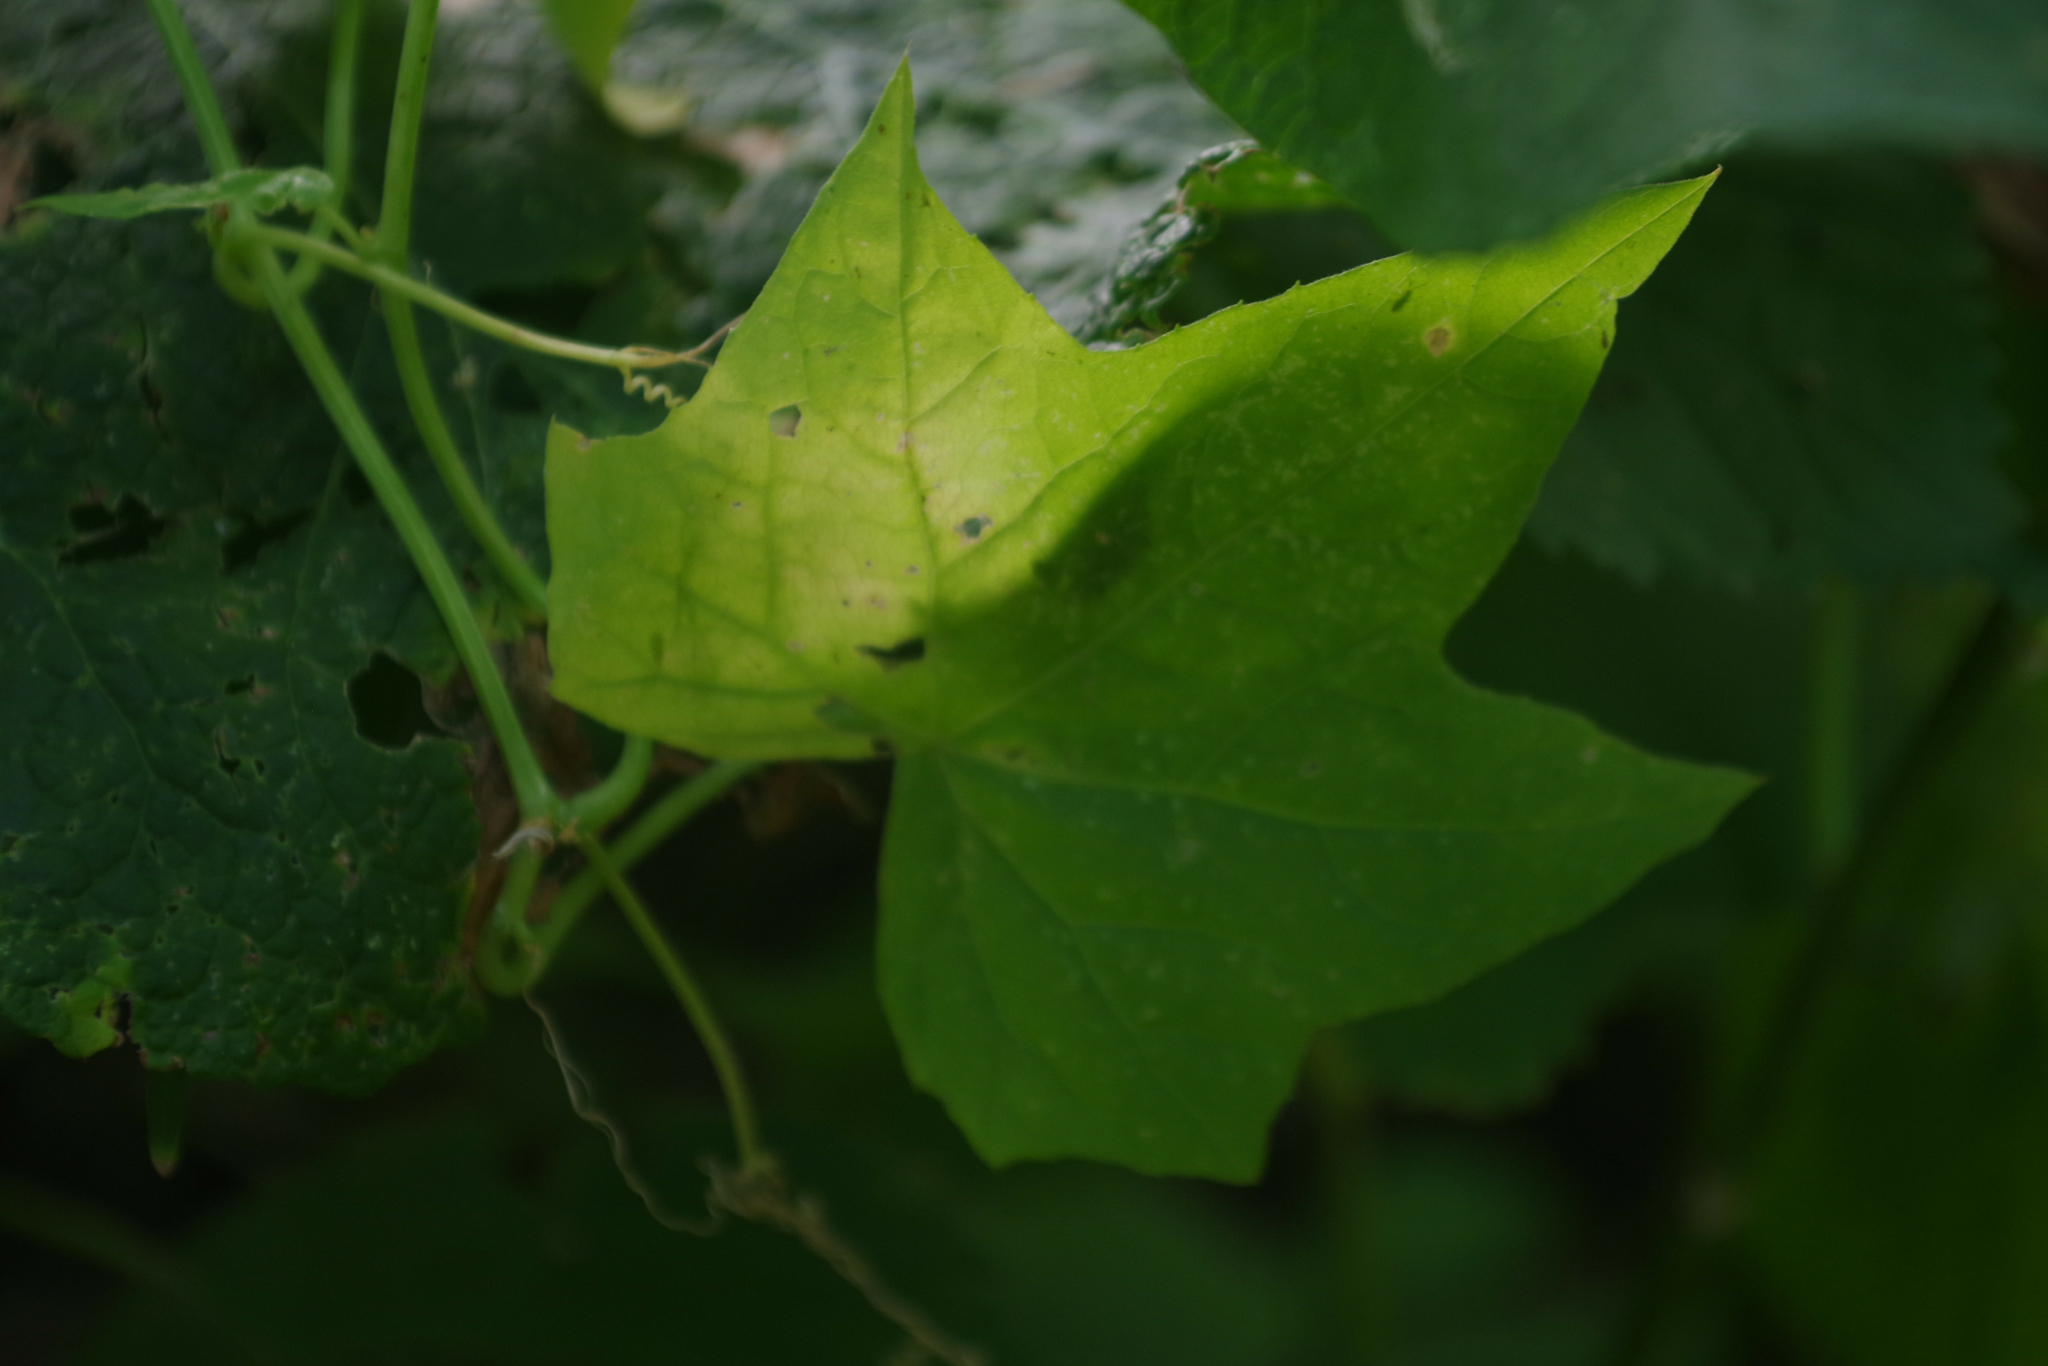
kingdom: Plantae
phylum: Tracheophyta
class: Magnoliopsida
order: Cucurbitales
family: Cucurbitaceae
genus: Echinocystis
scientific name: Echinocystis lobata
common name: Wild cucumber
